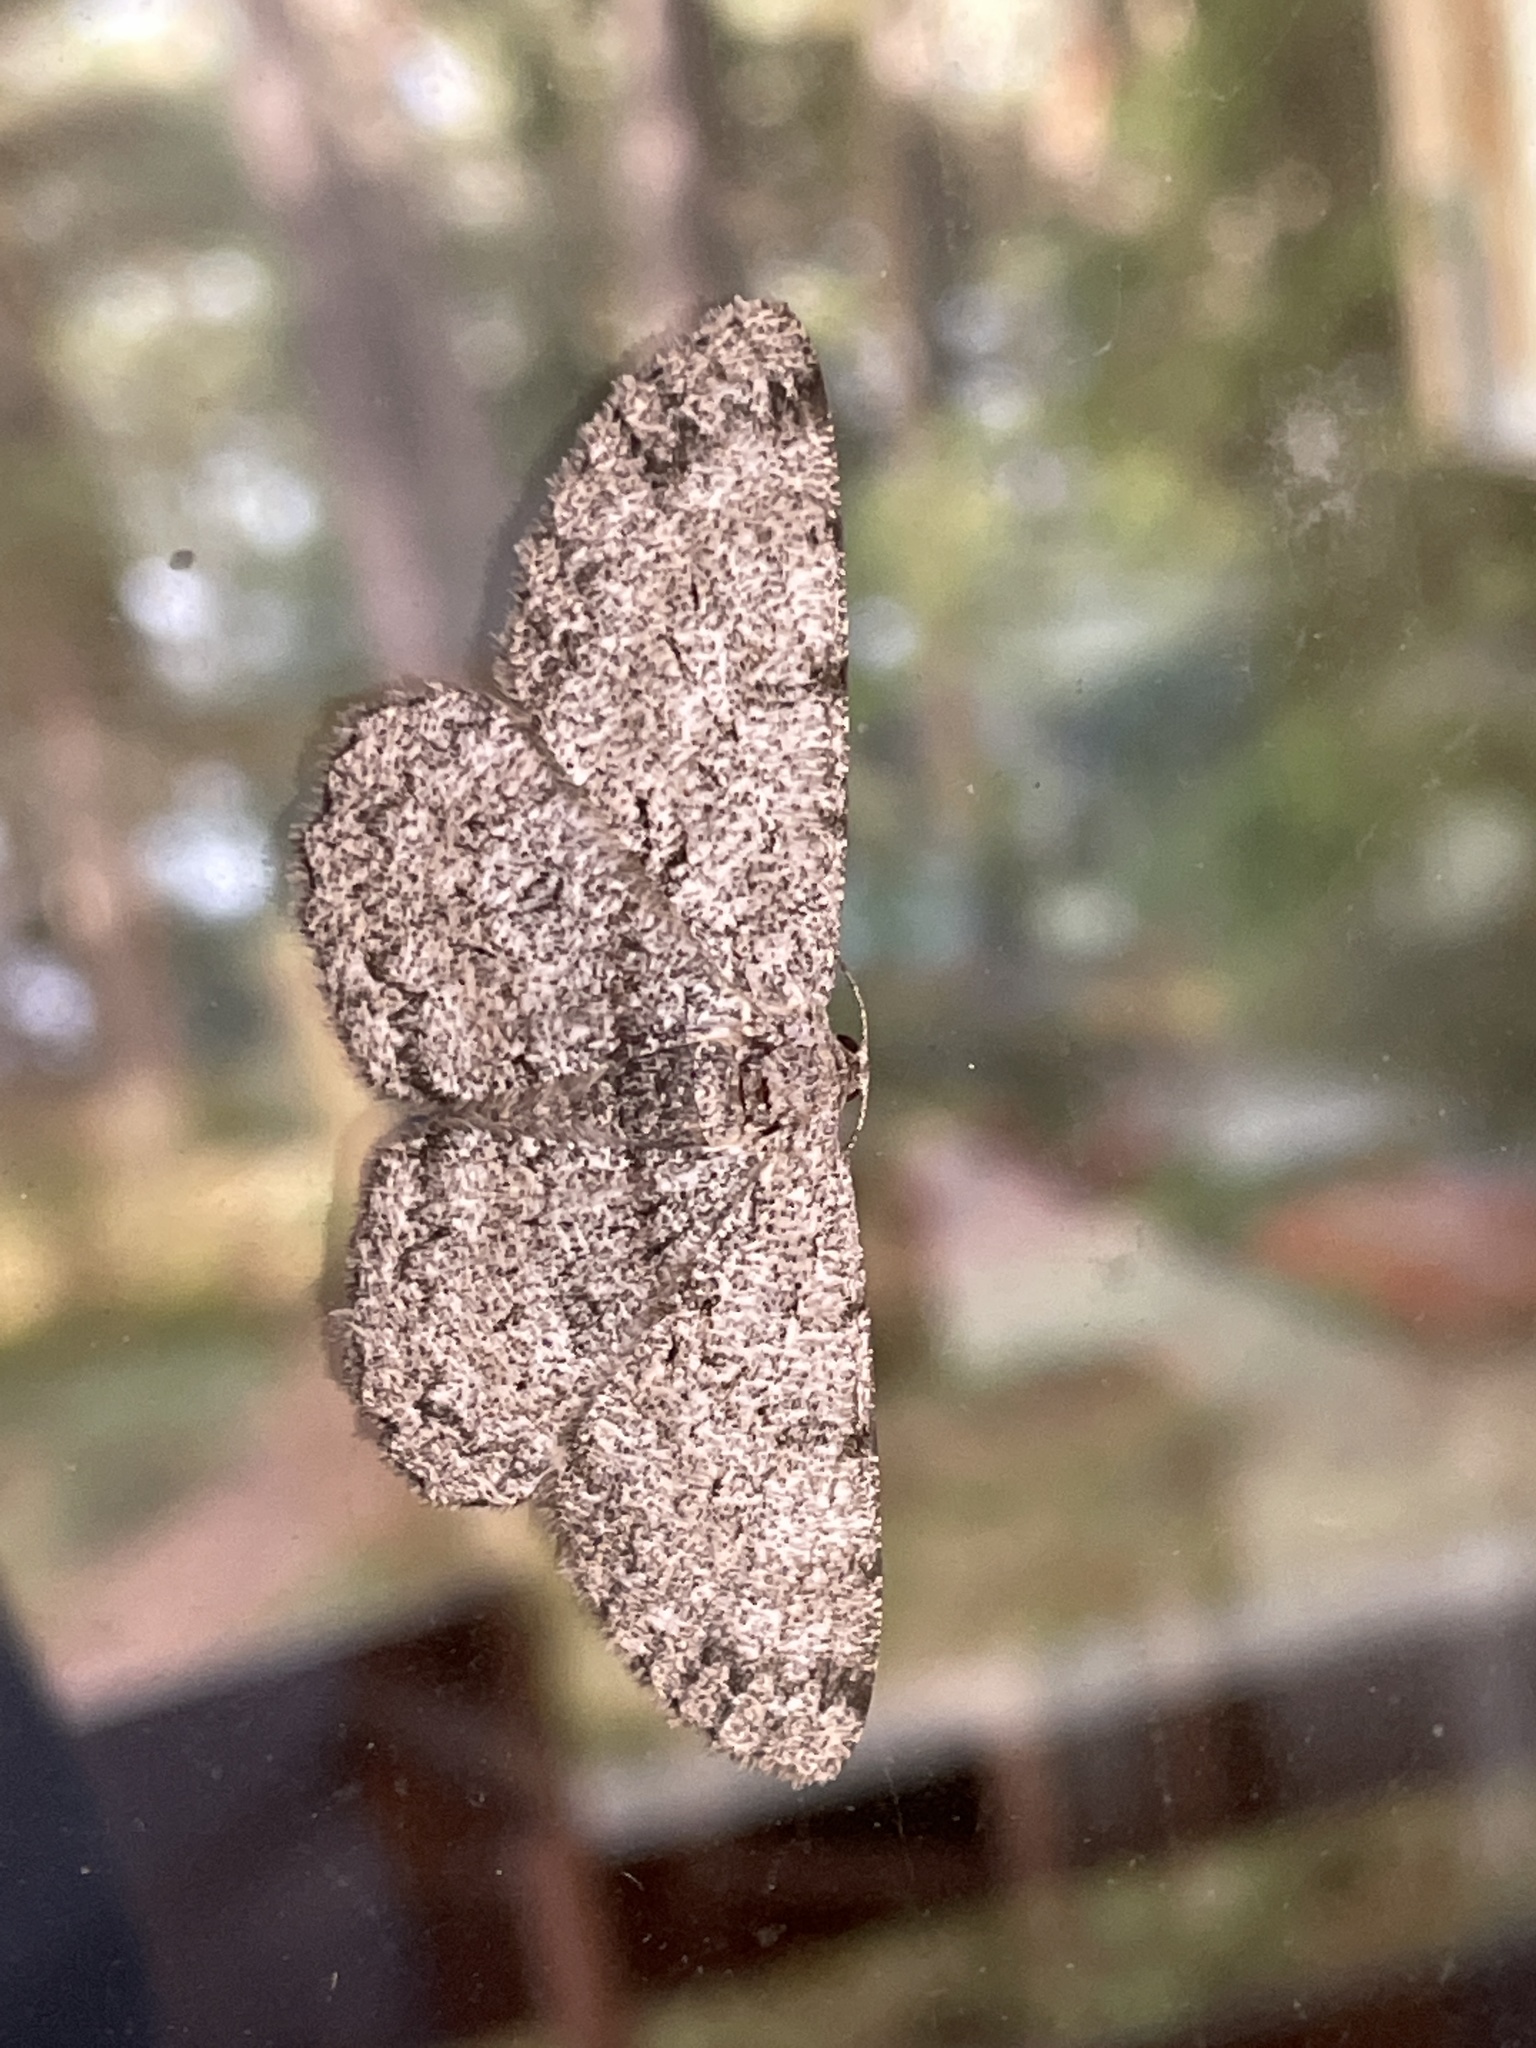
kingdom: Animalia
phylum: Arthropoda
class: Insecta
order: Lepidoptera
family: Geometridae
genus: Hypomecis
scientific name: Hypomecis roboraria
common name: Great oak beauty
